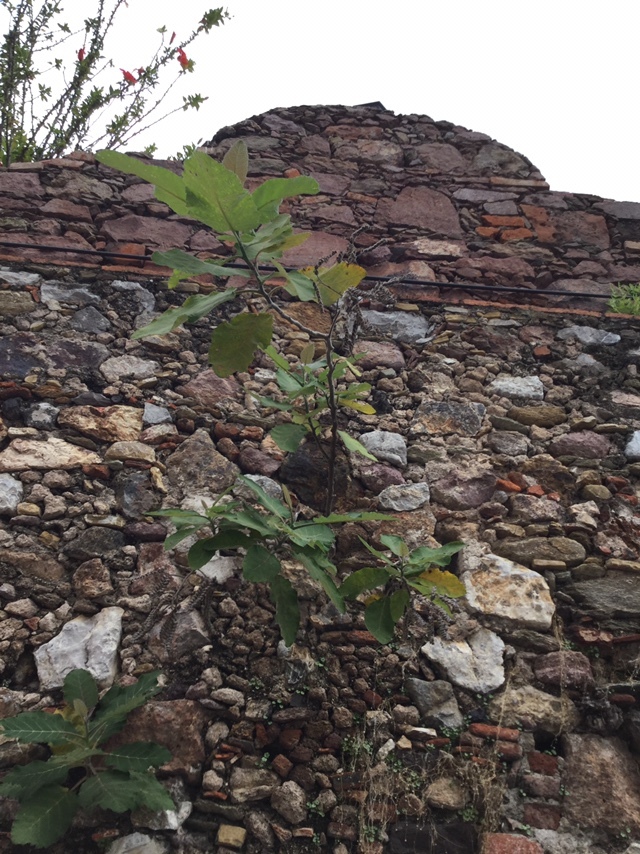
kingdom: Plantae
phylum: Tracheophyta
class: Magnoliopsida
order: Boraginales
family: Namaceae
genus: Wigandia
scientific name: Wigandia urens
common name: Caracus wigandia
